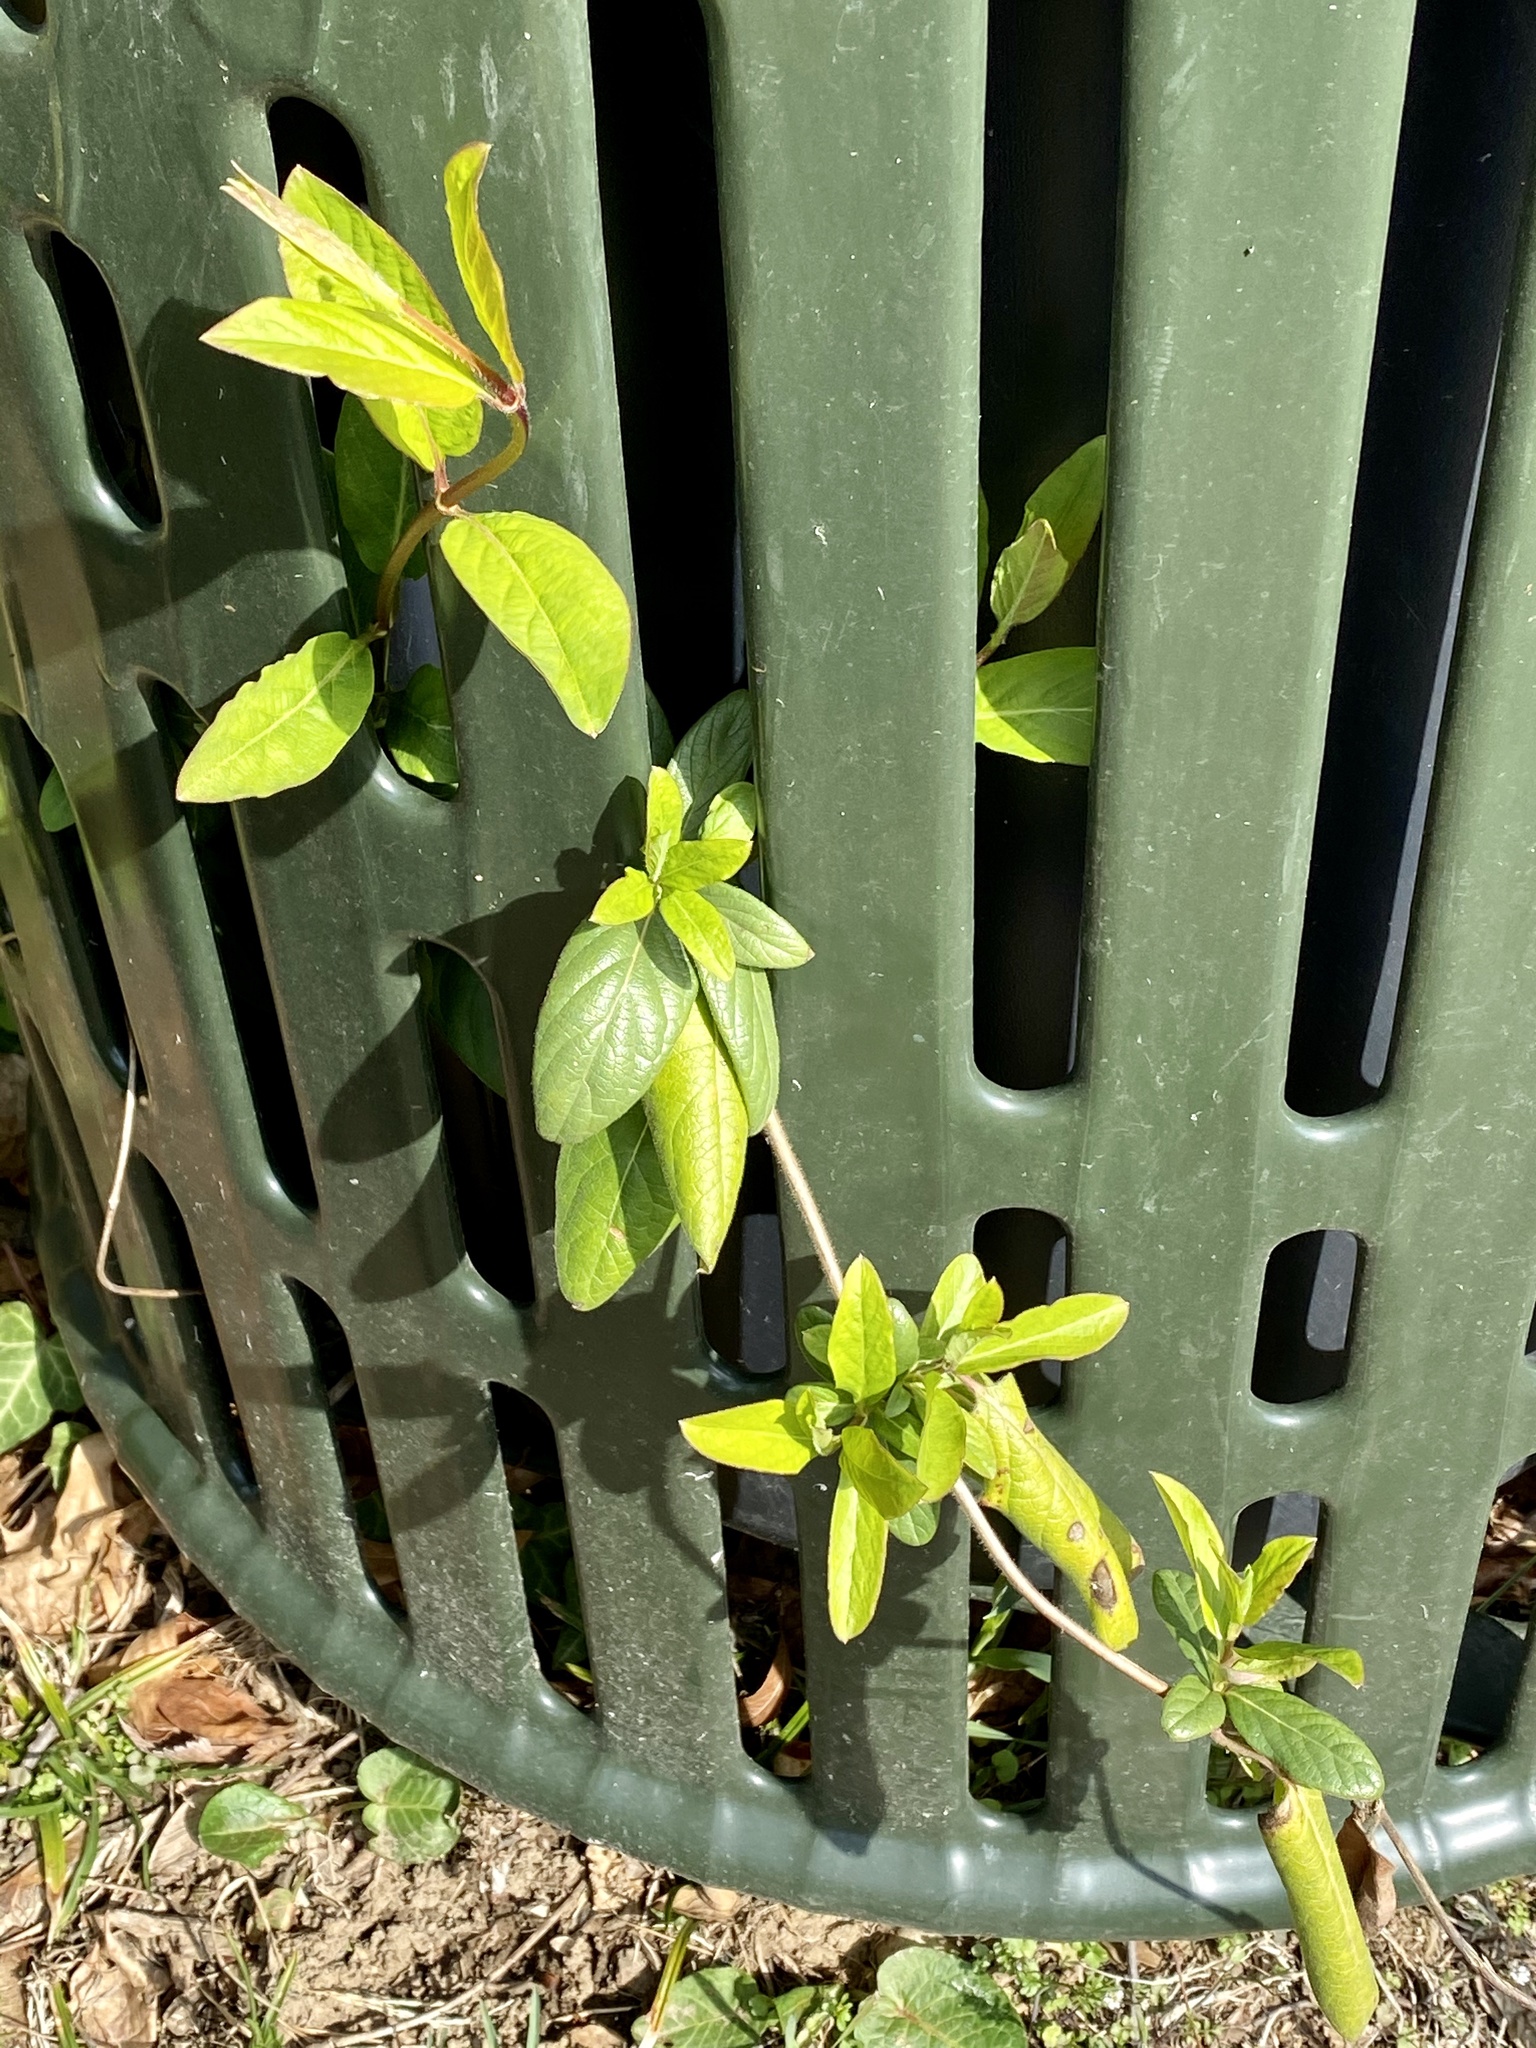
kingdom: Plantae
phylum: Tracheophyta
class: Magnoliopsida
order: Dipsacales
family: Caprifoliaceae
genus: Lonicera
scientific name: Lonicera japonica
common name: Japanese honeysuckle
